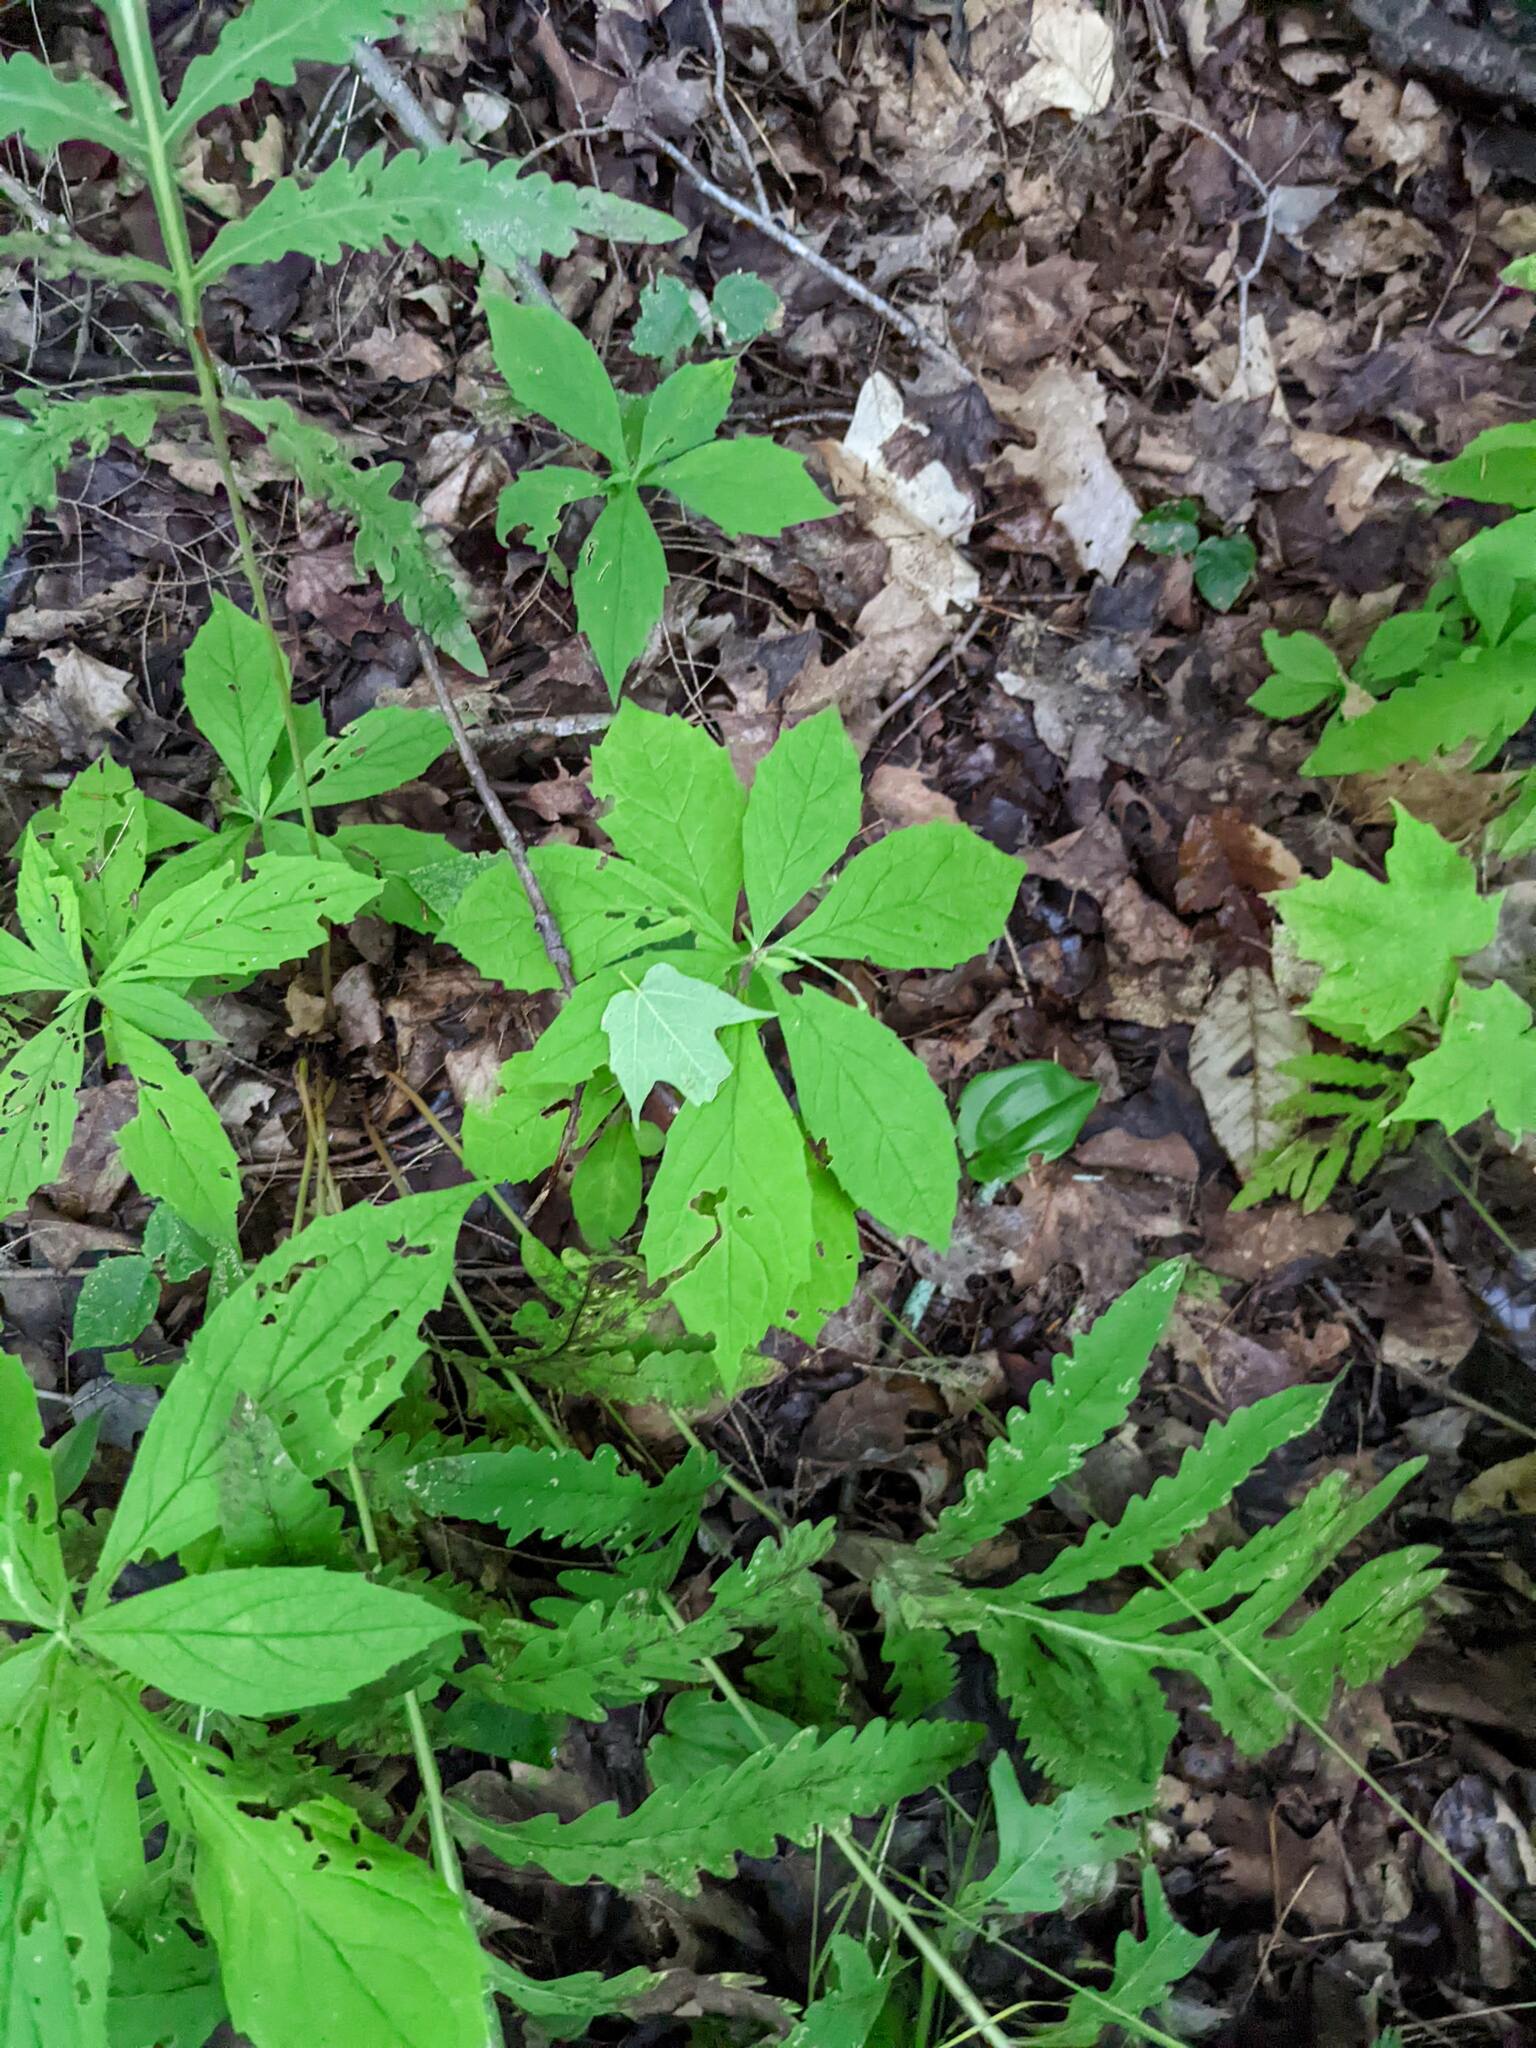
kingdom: Plantae
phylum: Tracheophyta
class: Magnoliopsida
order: Asterales
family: Asteraceae
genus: Oclemena
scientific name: Oclemena acuminata
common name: Mountain aster
